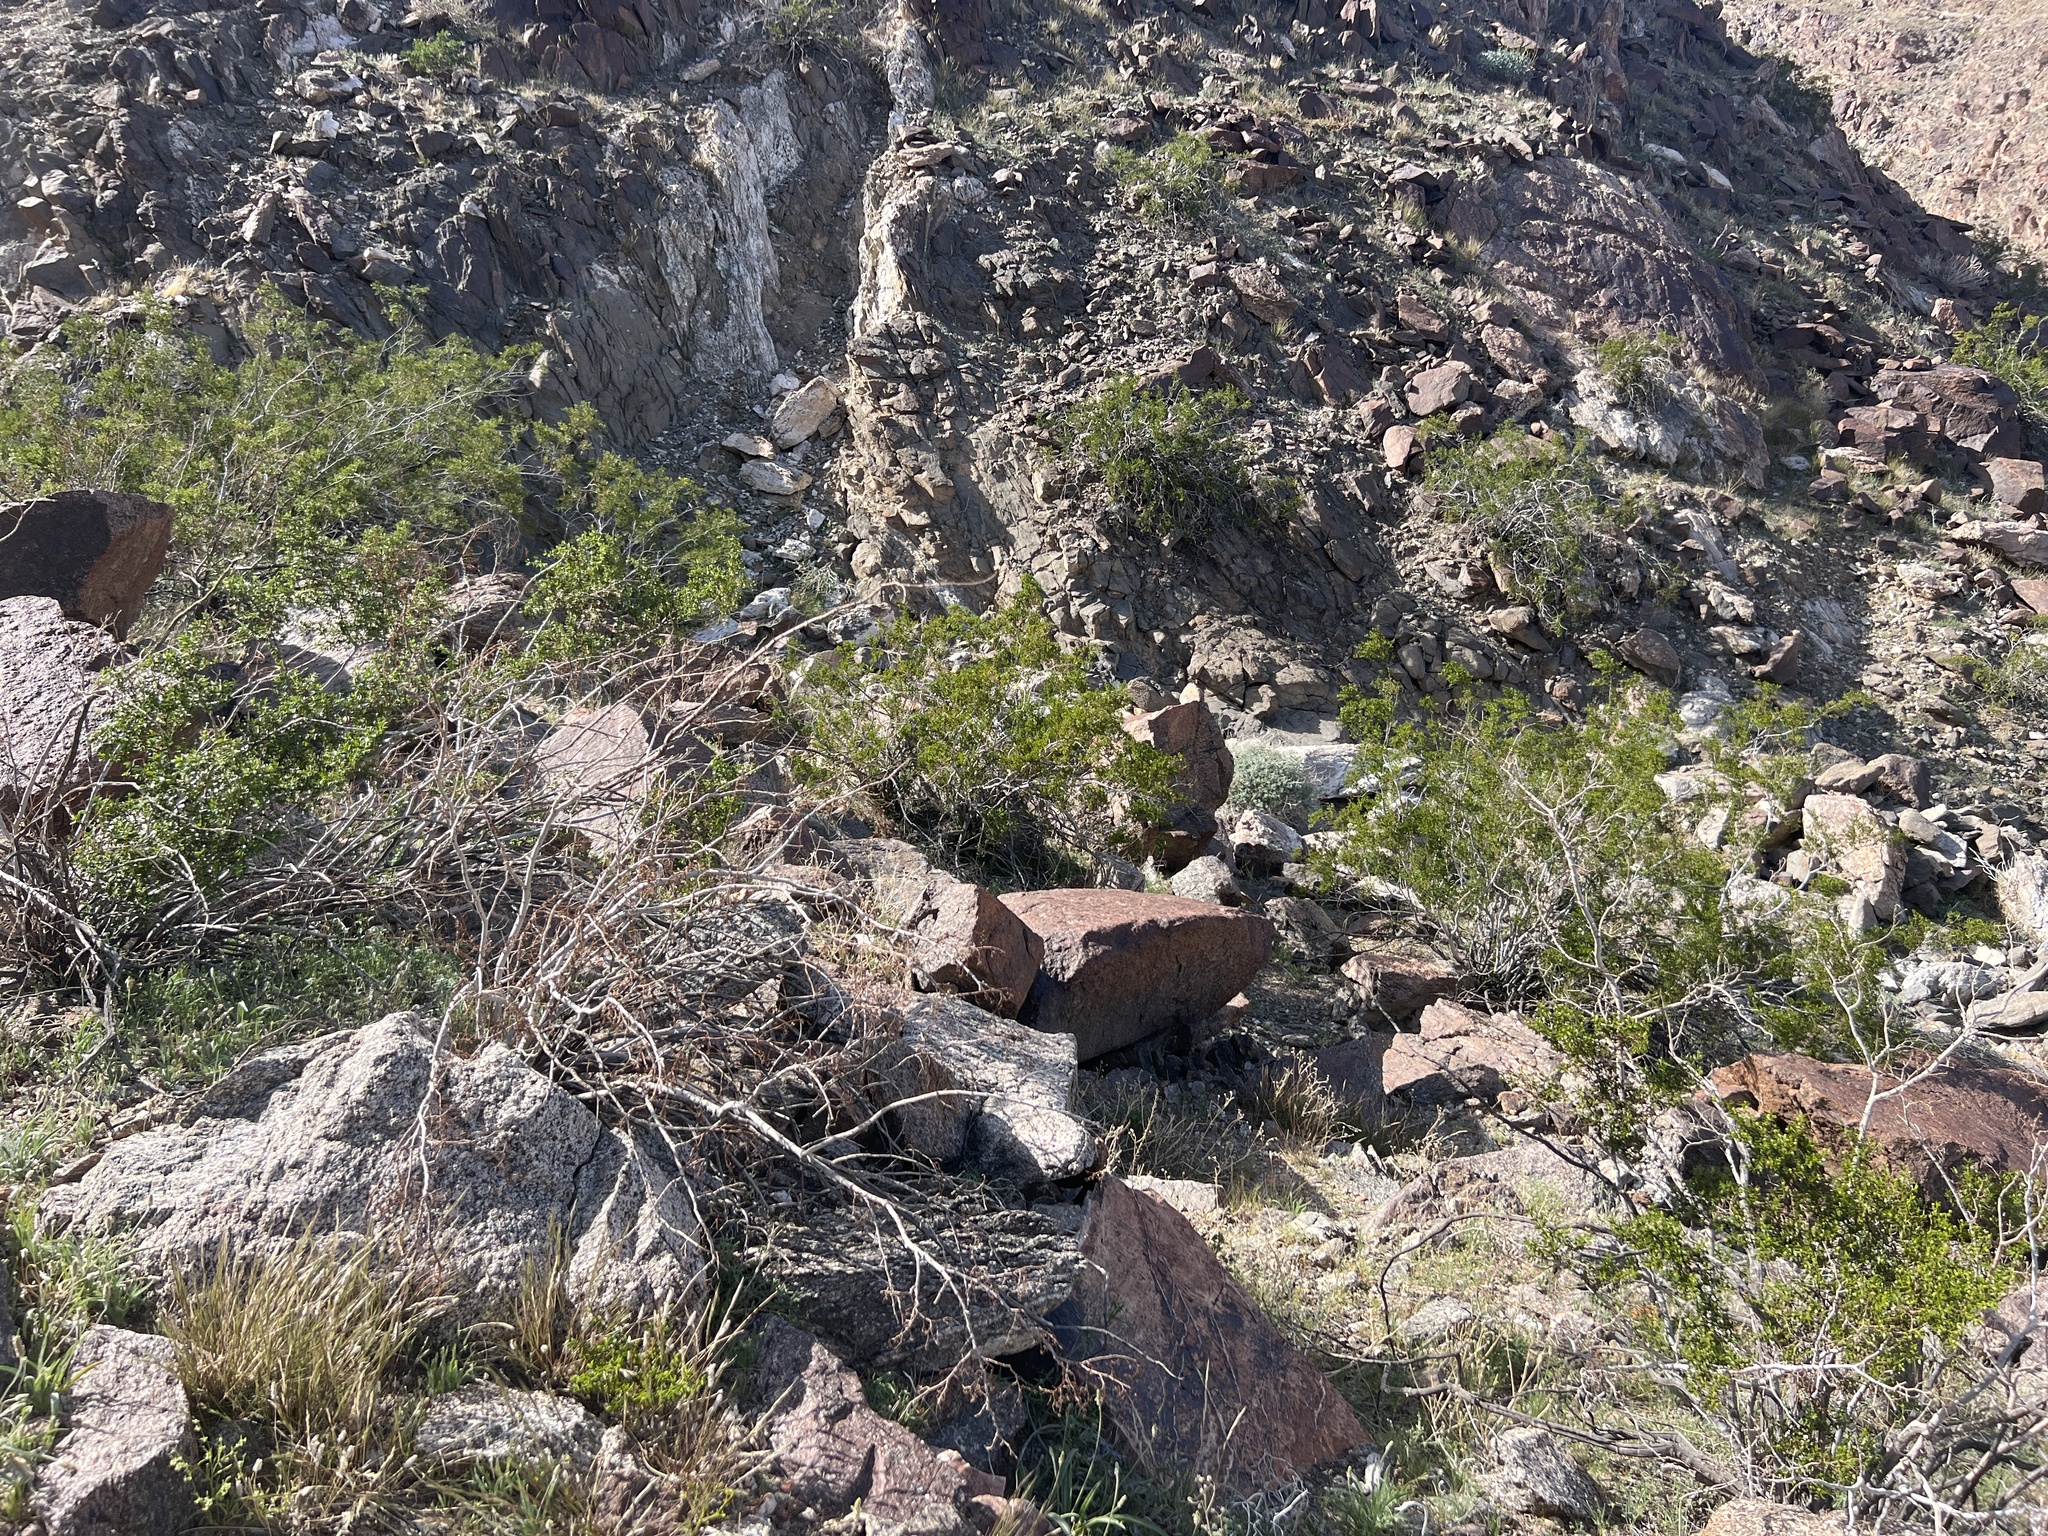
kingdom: Plantae
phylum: Tracheophyta
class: Magnoliopsida
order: Zygophyllales
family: Zygophyllaceae
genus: Larrea
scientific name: Larrea tridentata
